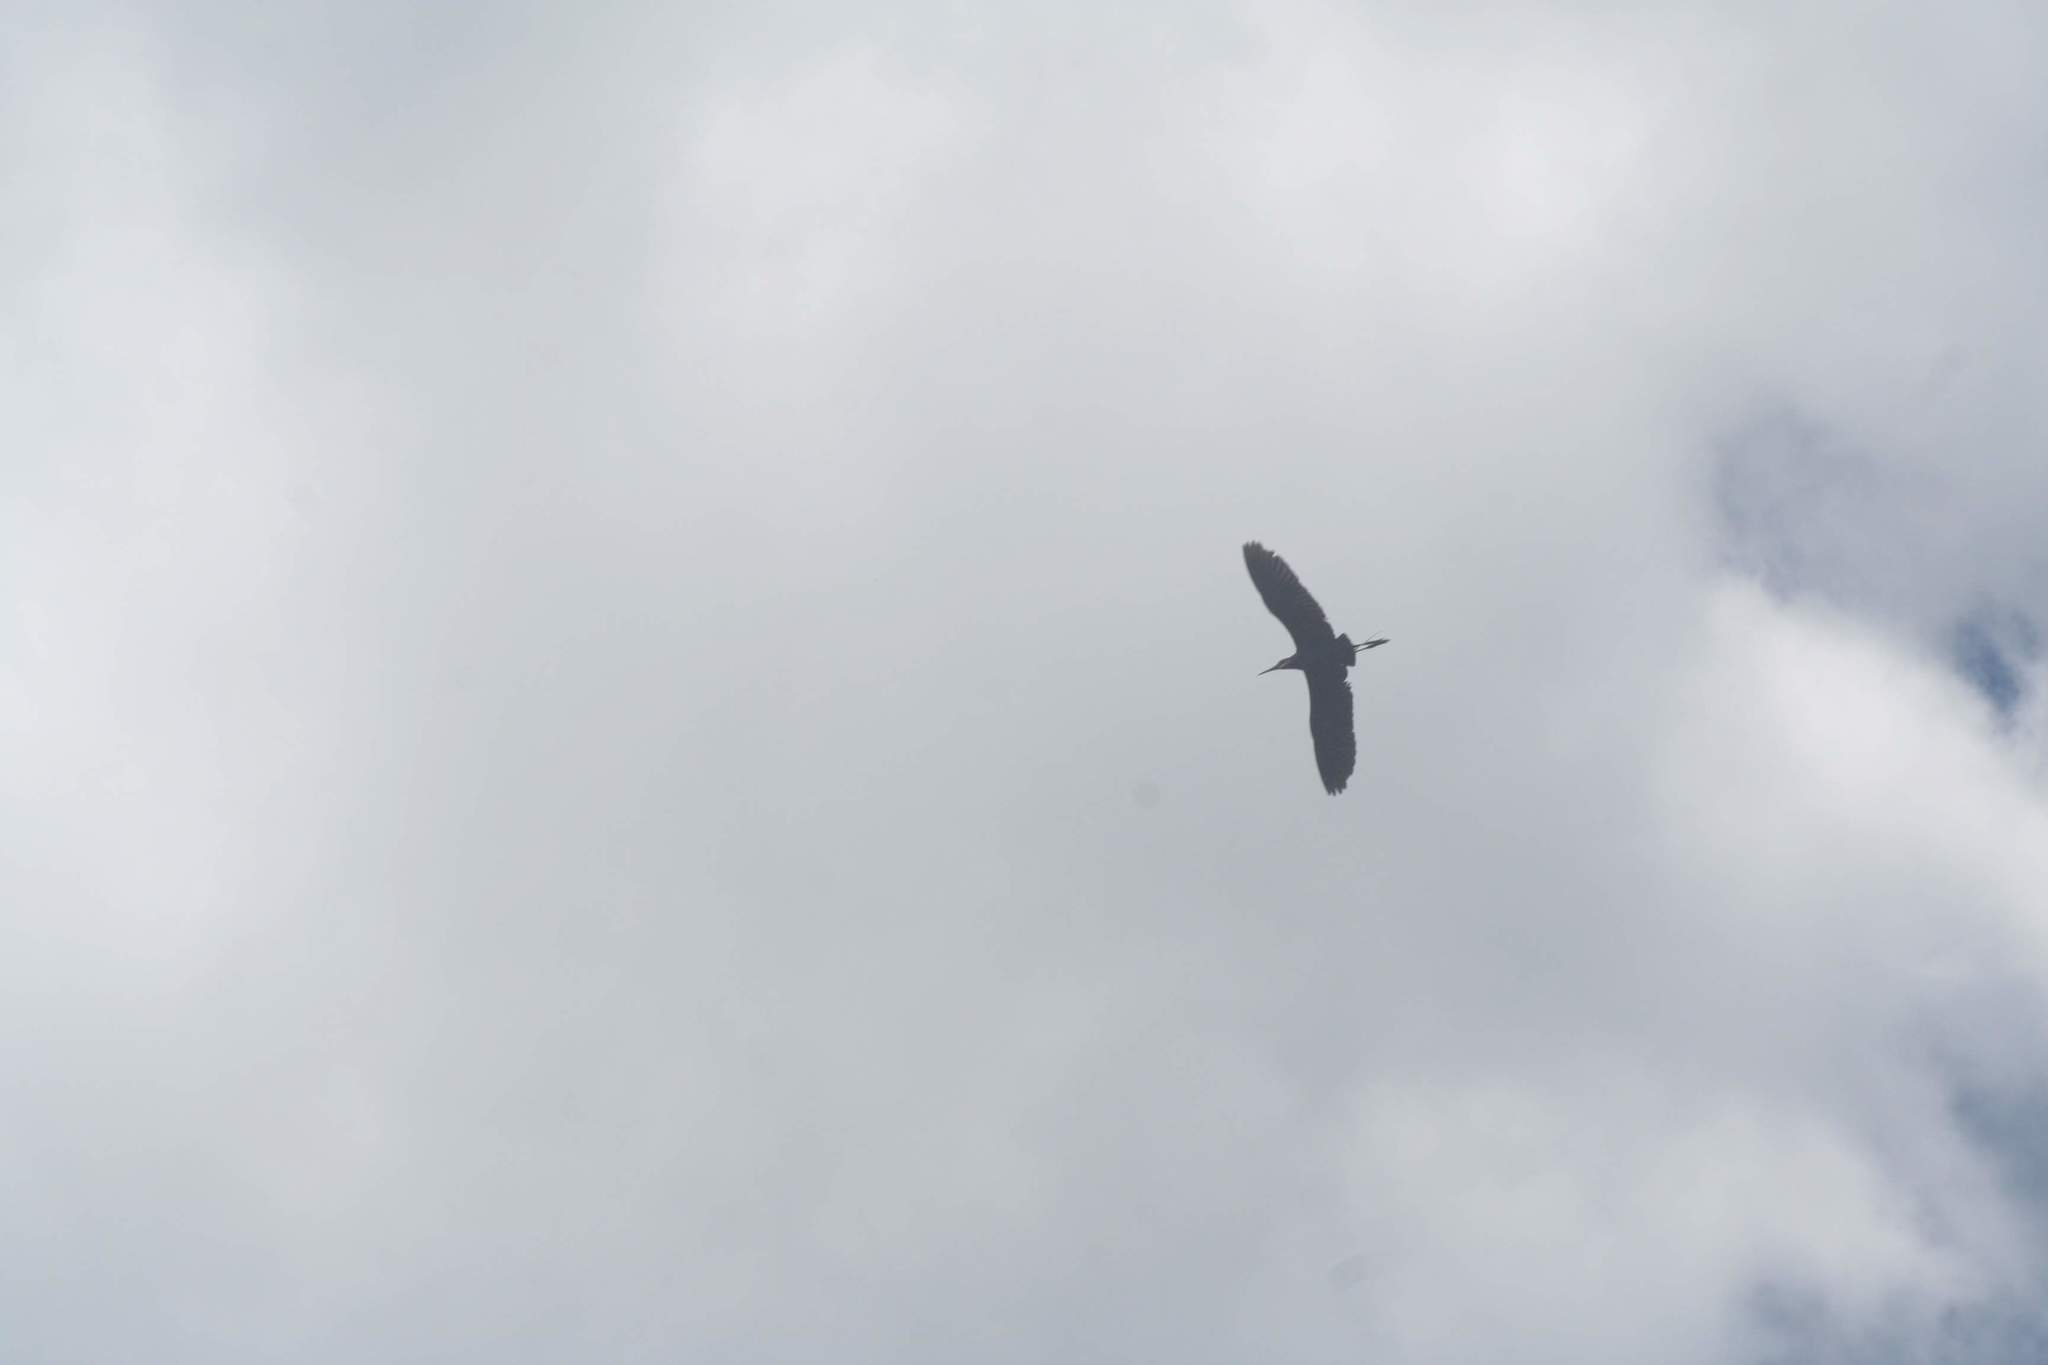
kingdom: Animalia
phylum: Chordata
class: Aves
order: Pelecaniformes
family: Ardeidae
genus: Egretta
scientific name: Egretta caerulea
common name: Little blue heron
